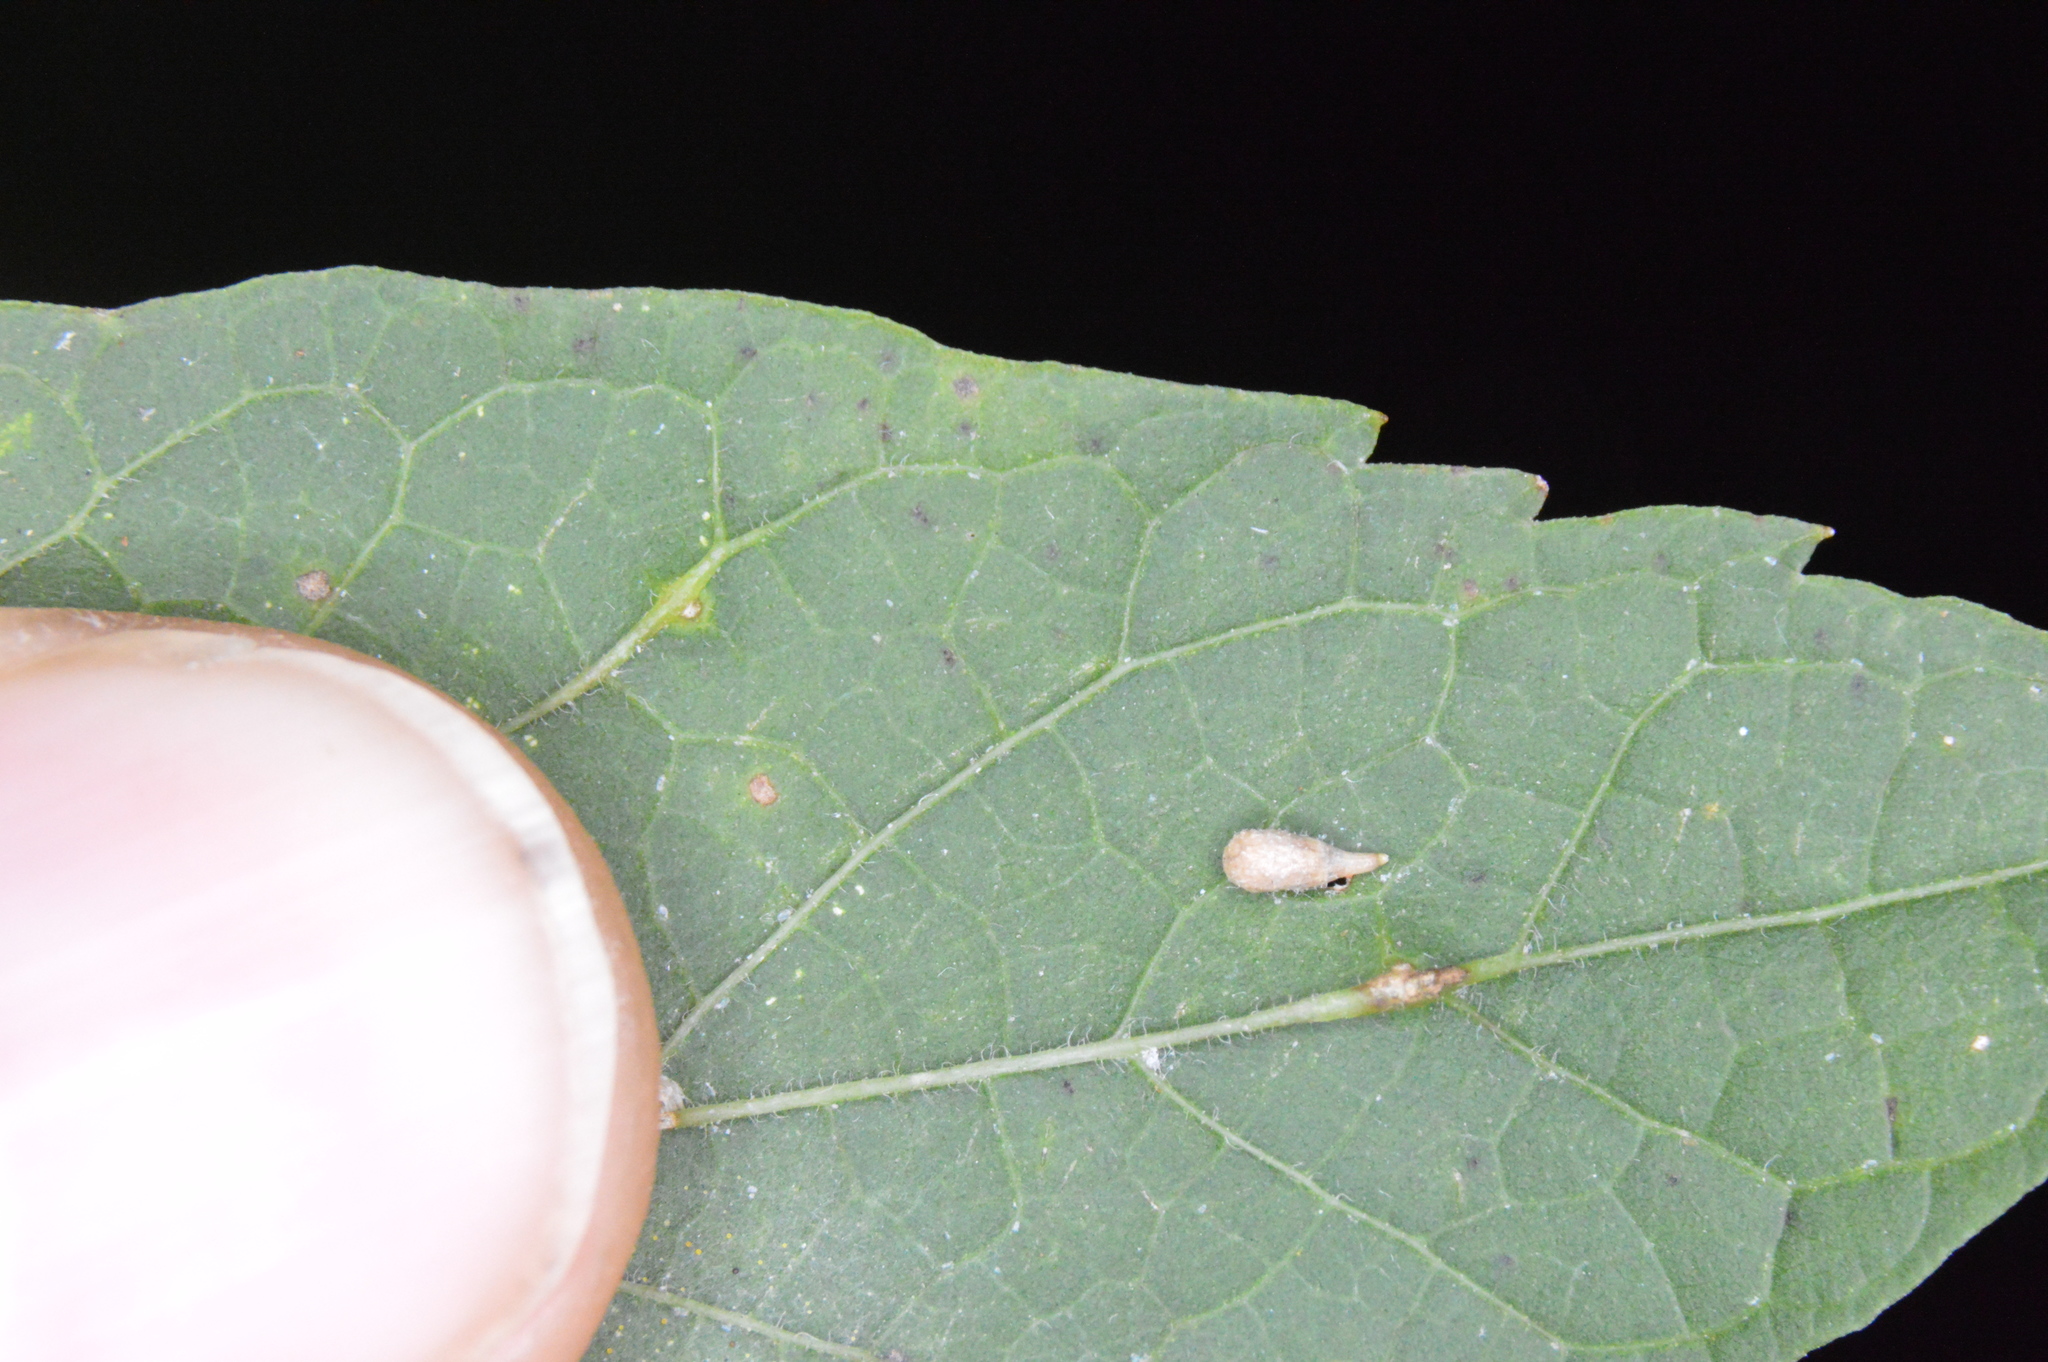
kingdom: Animalia
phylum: Arthropoda
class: Insecta
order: Diptera
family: Cecidomyiidae
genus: Celticecis
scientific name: Celticecis supina
